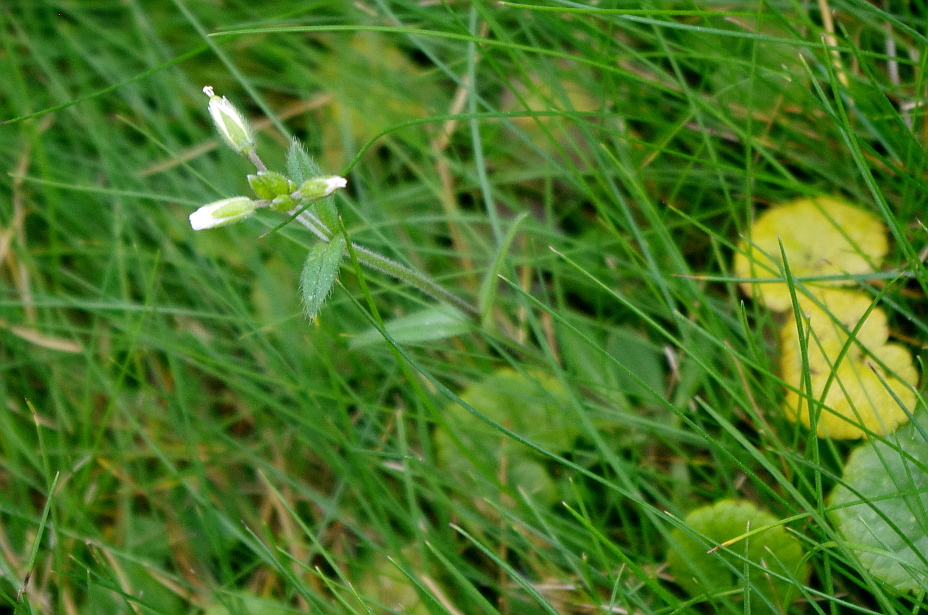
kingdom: Plantae
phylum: Tracheophyta
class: Magnoliopsida
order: Caryophyllales
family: Caryophyllaceae
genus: Cerastium
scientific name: Cerastium holosteoides
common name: Big chickweed
